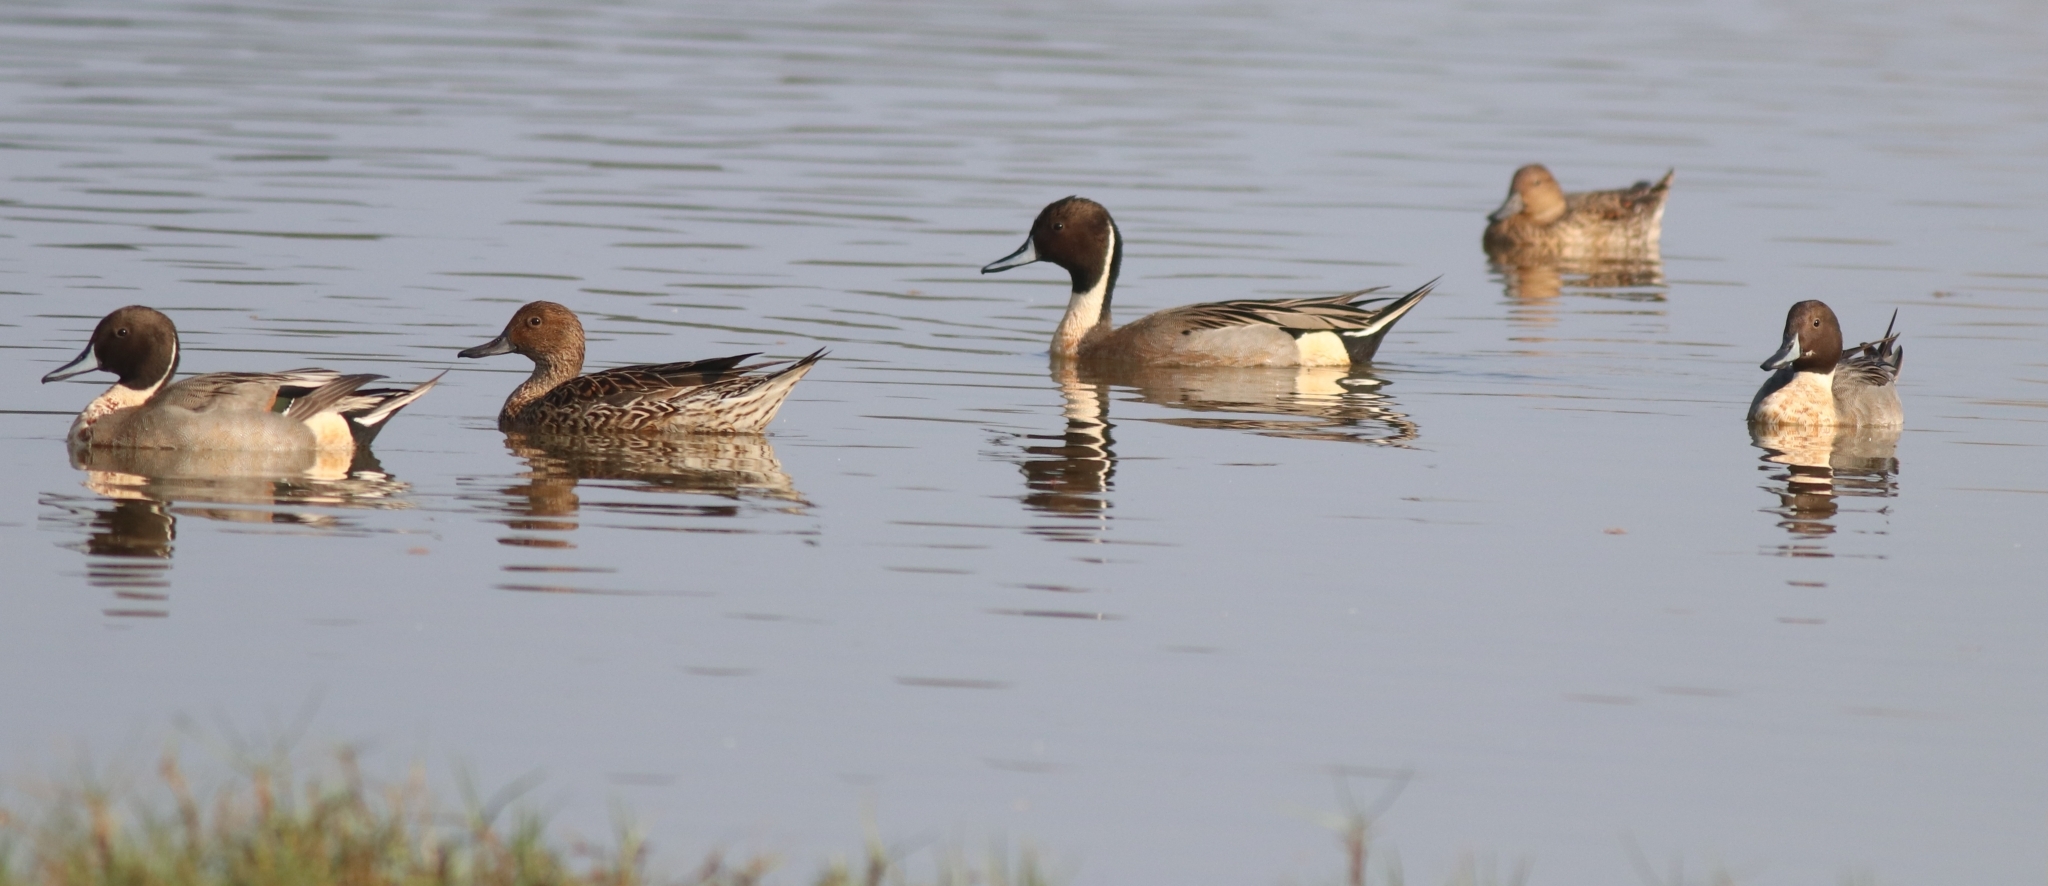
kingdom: Animalia
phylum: Chordata
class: Aves
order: Anseriformes
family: Anatidae
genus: Anas
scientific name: Anas acuta
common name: Northern pintail
